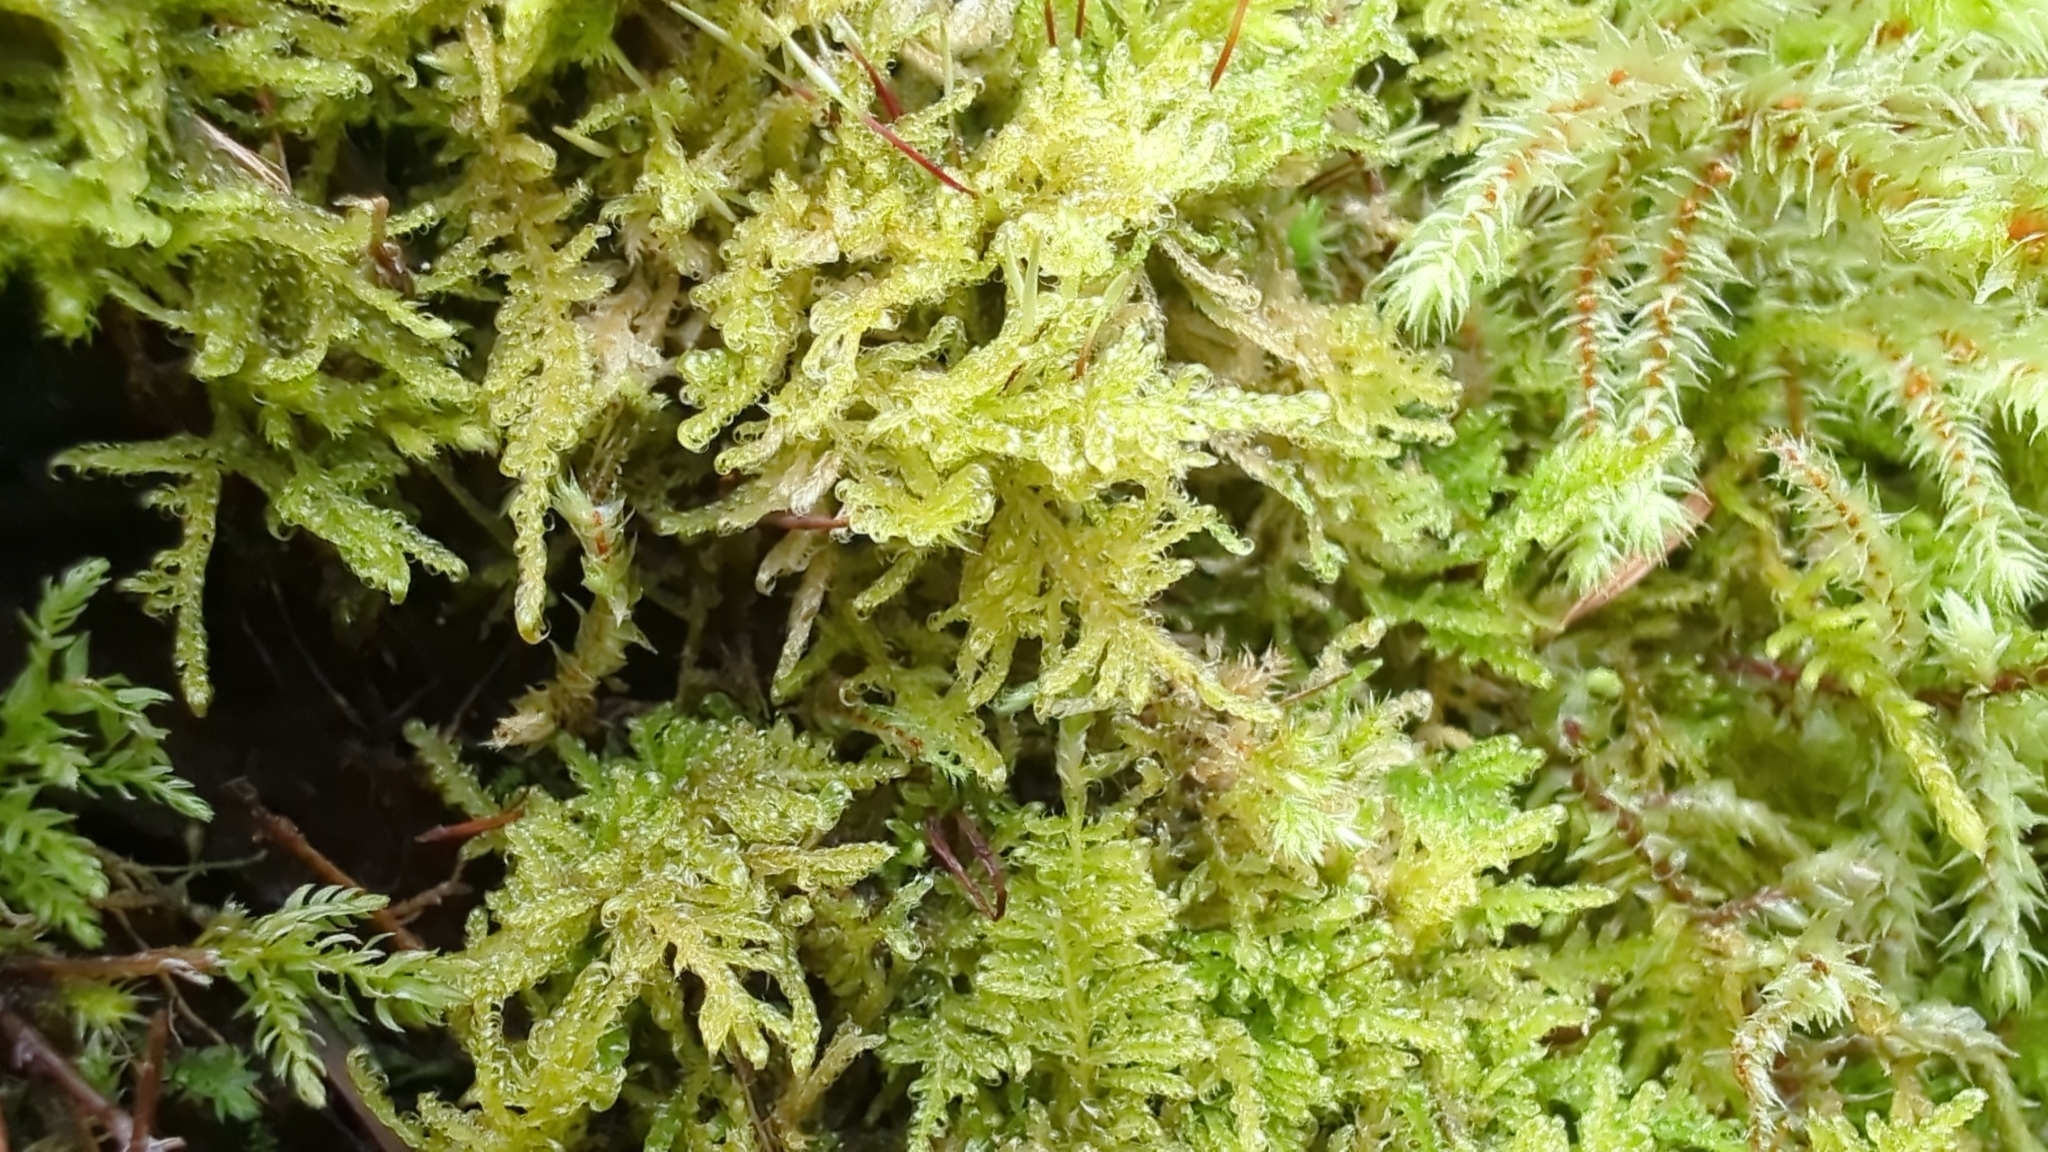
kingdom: Plantae
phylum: Bryophyta
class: Bryopsida
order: Hypnales
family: Stereodontaceae
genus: Stereodon
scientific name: Stereodon subimponens
